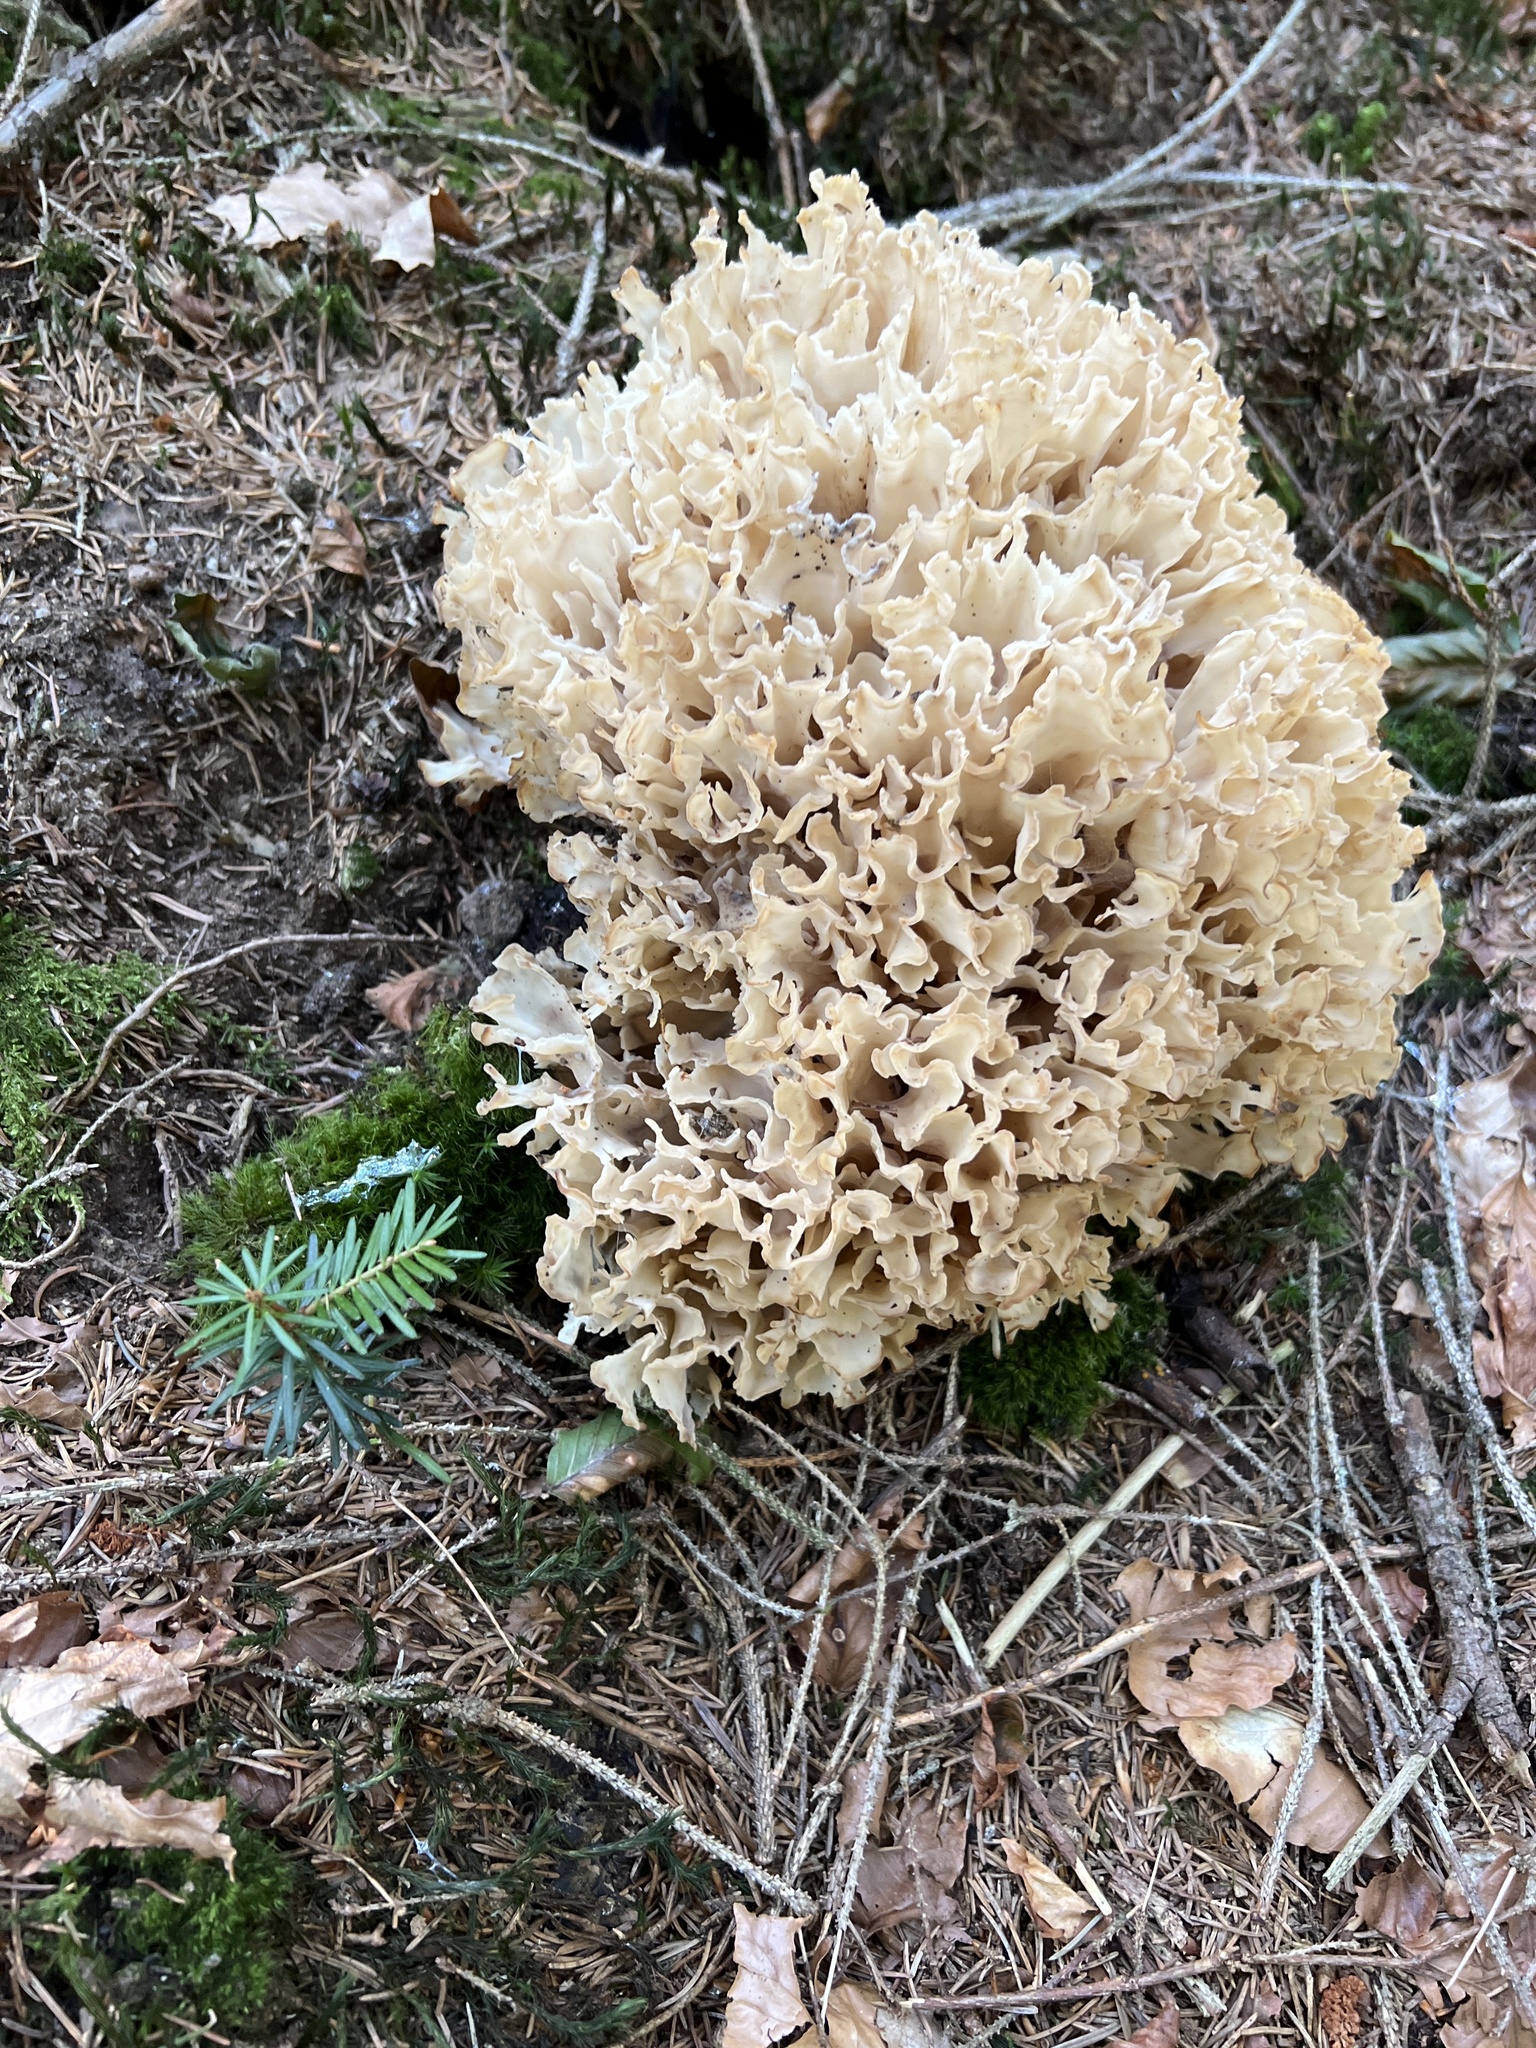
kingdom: Fungi
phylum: Basidiomycota
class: Agaricomycetes
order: Polyporales
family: Sparassidaceae
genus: Sparassis
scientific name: Sparassis brevipes
